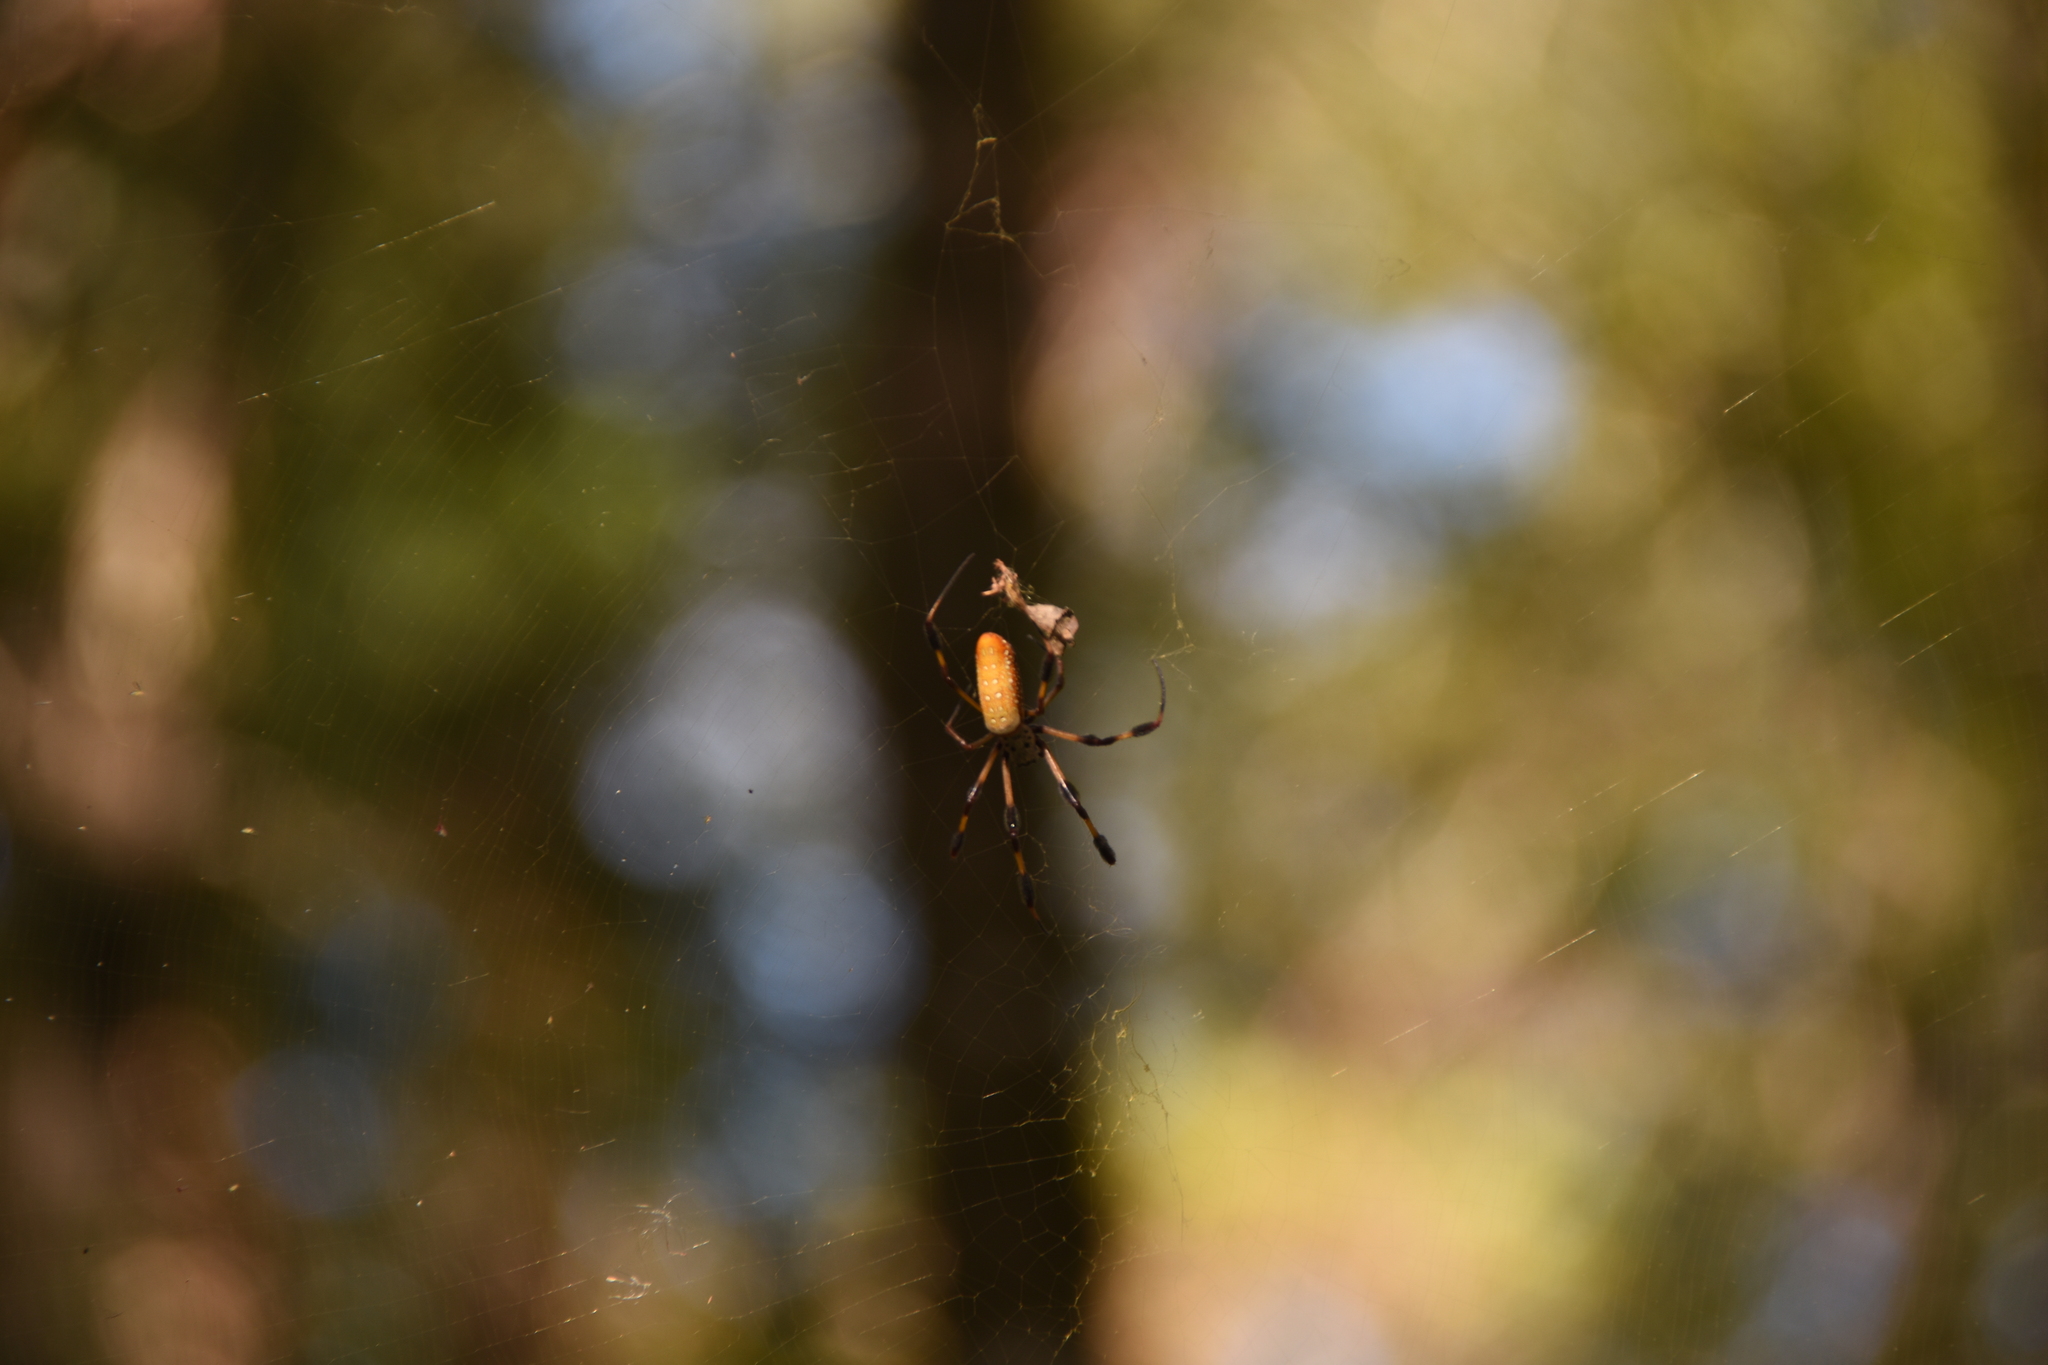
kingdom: Animalia
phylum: Arthropoda
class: Arachnida
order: Araneae
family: Araneidae
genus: Trichonephila
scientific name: Trichonephila clavipes
